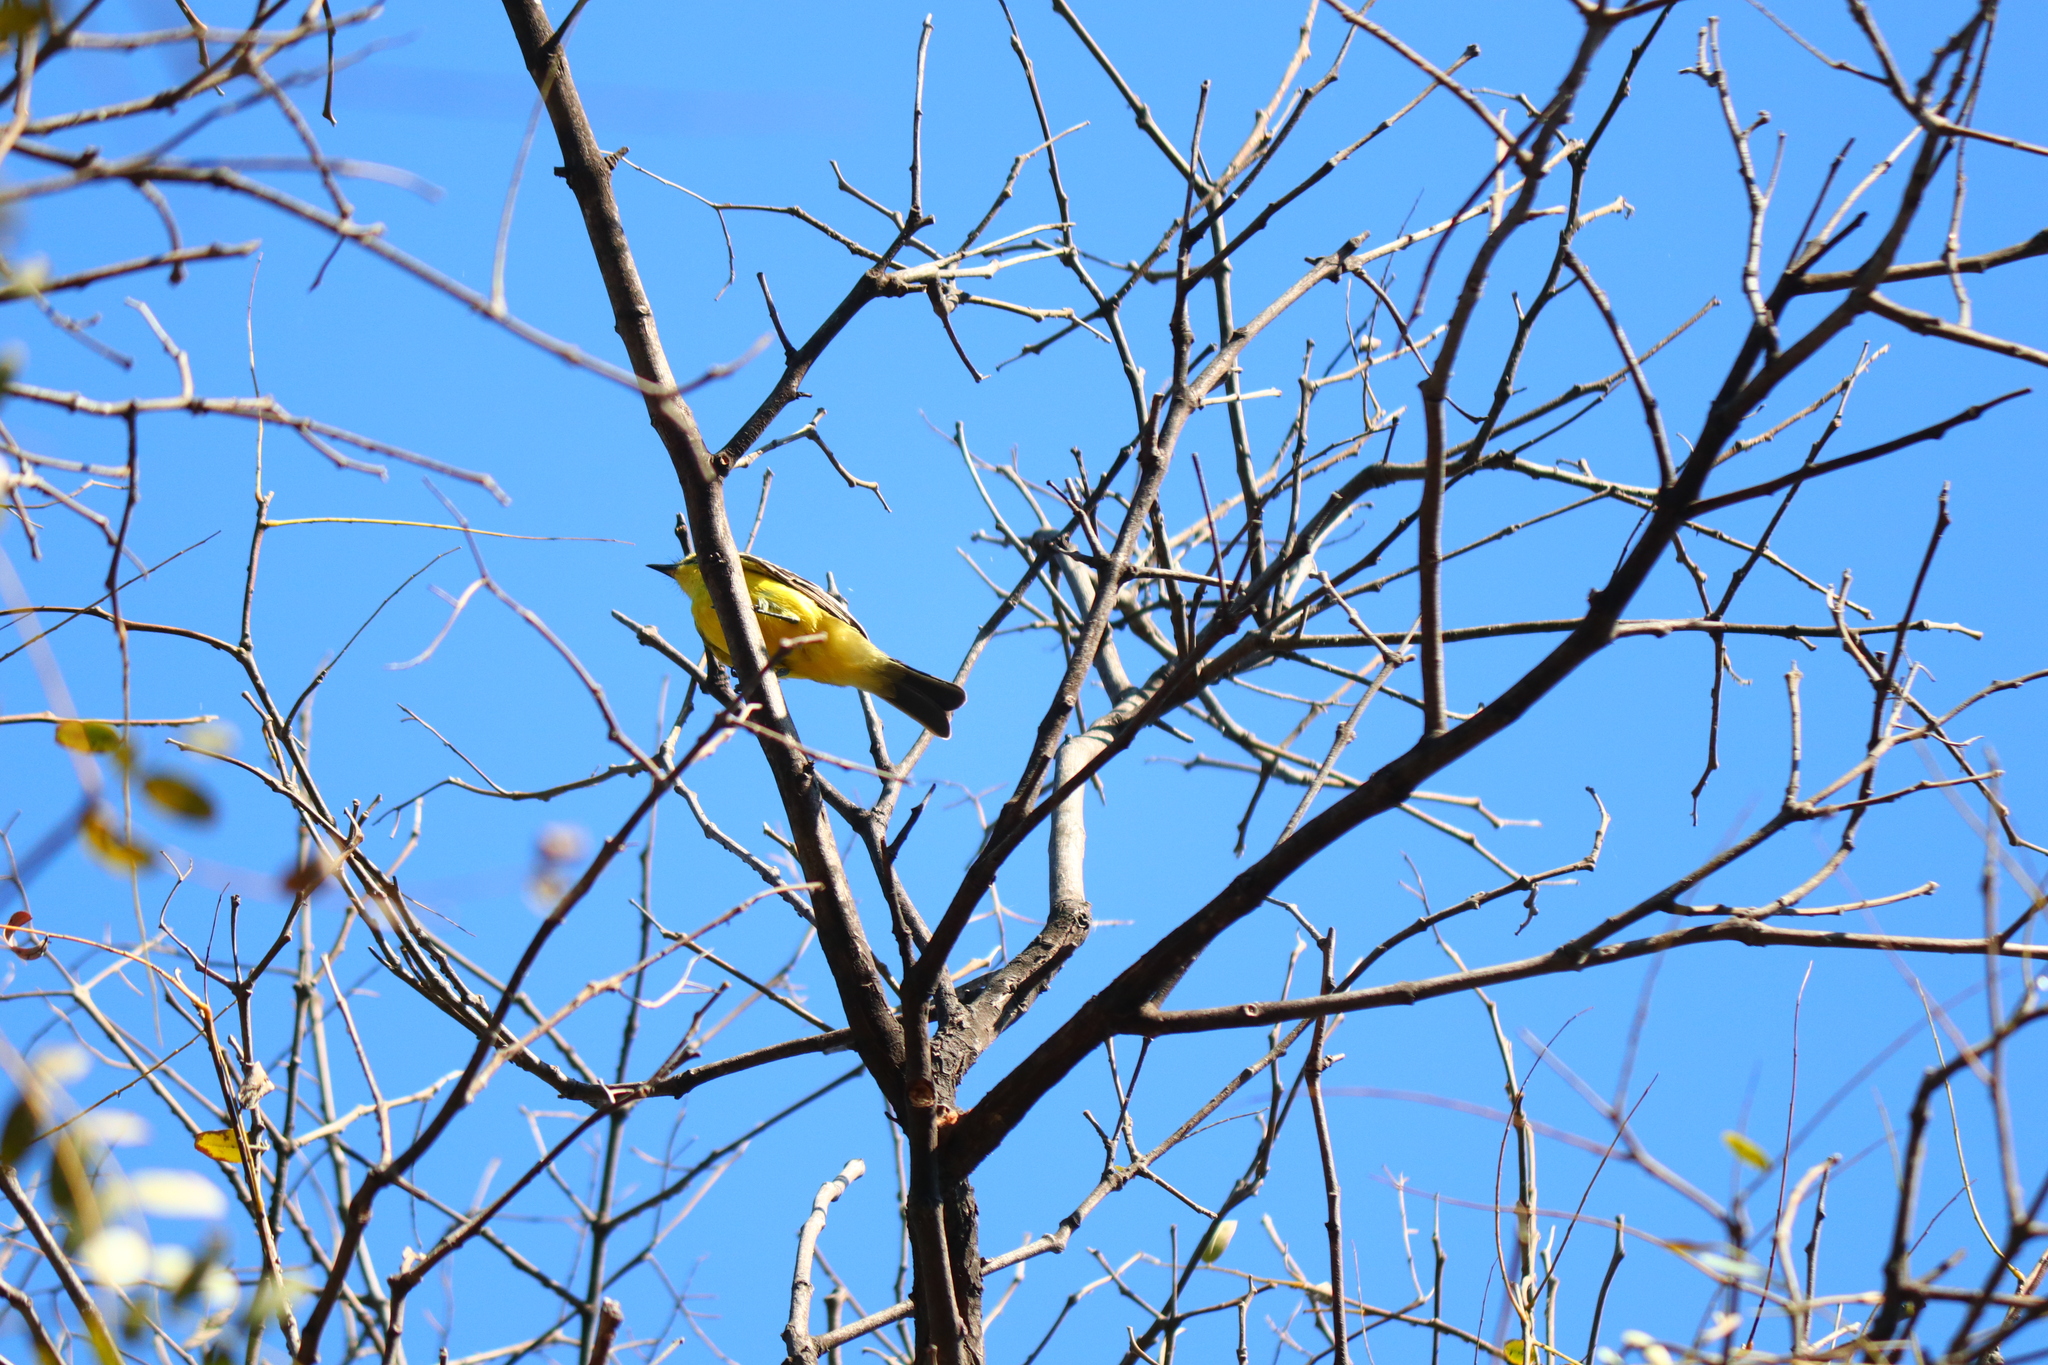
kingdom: Animalia
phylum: Chordata
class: Aves
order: Passeriformes
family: Tyrannidae
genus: Satrapa
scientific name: Satrapa icterophrys
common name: Yellow-browed tyrant
